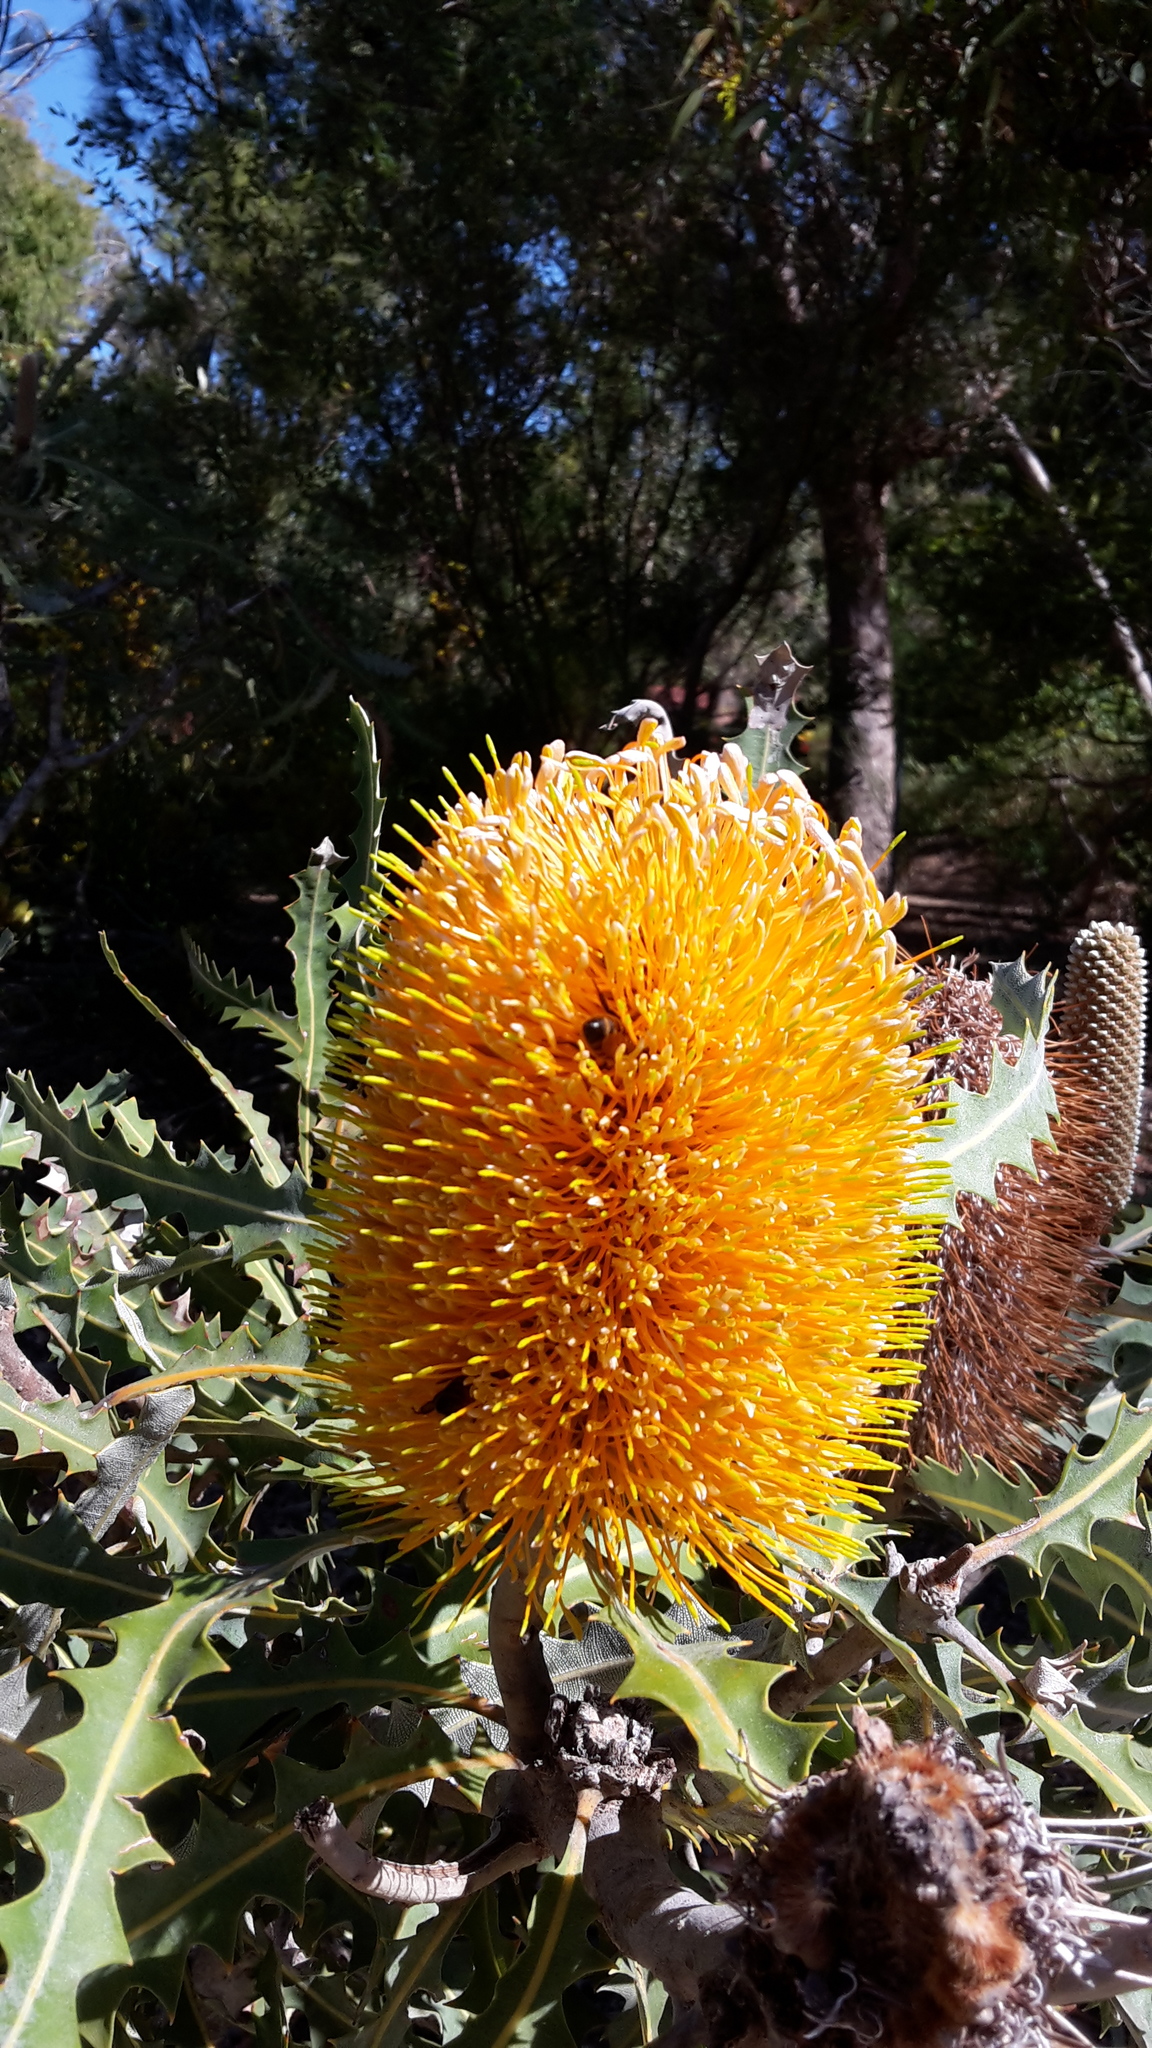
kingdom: Plantae
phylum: Tracheophyta
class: Magnoliopsida
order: Proteales
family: Proteaceae
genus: Banksia
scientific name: Banksia ashbyi
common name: Ashby's banksia
